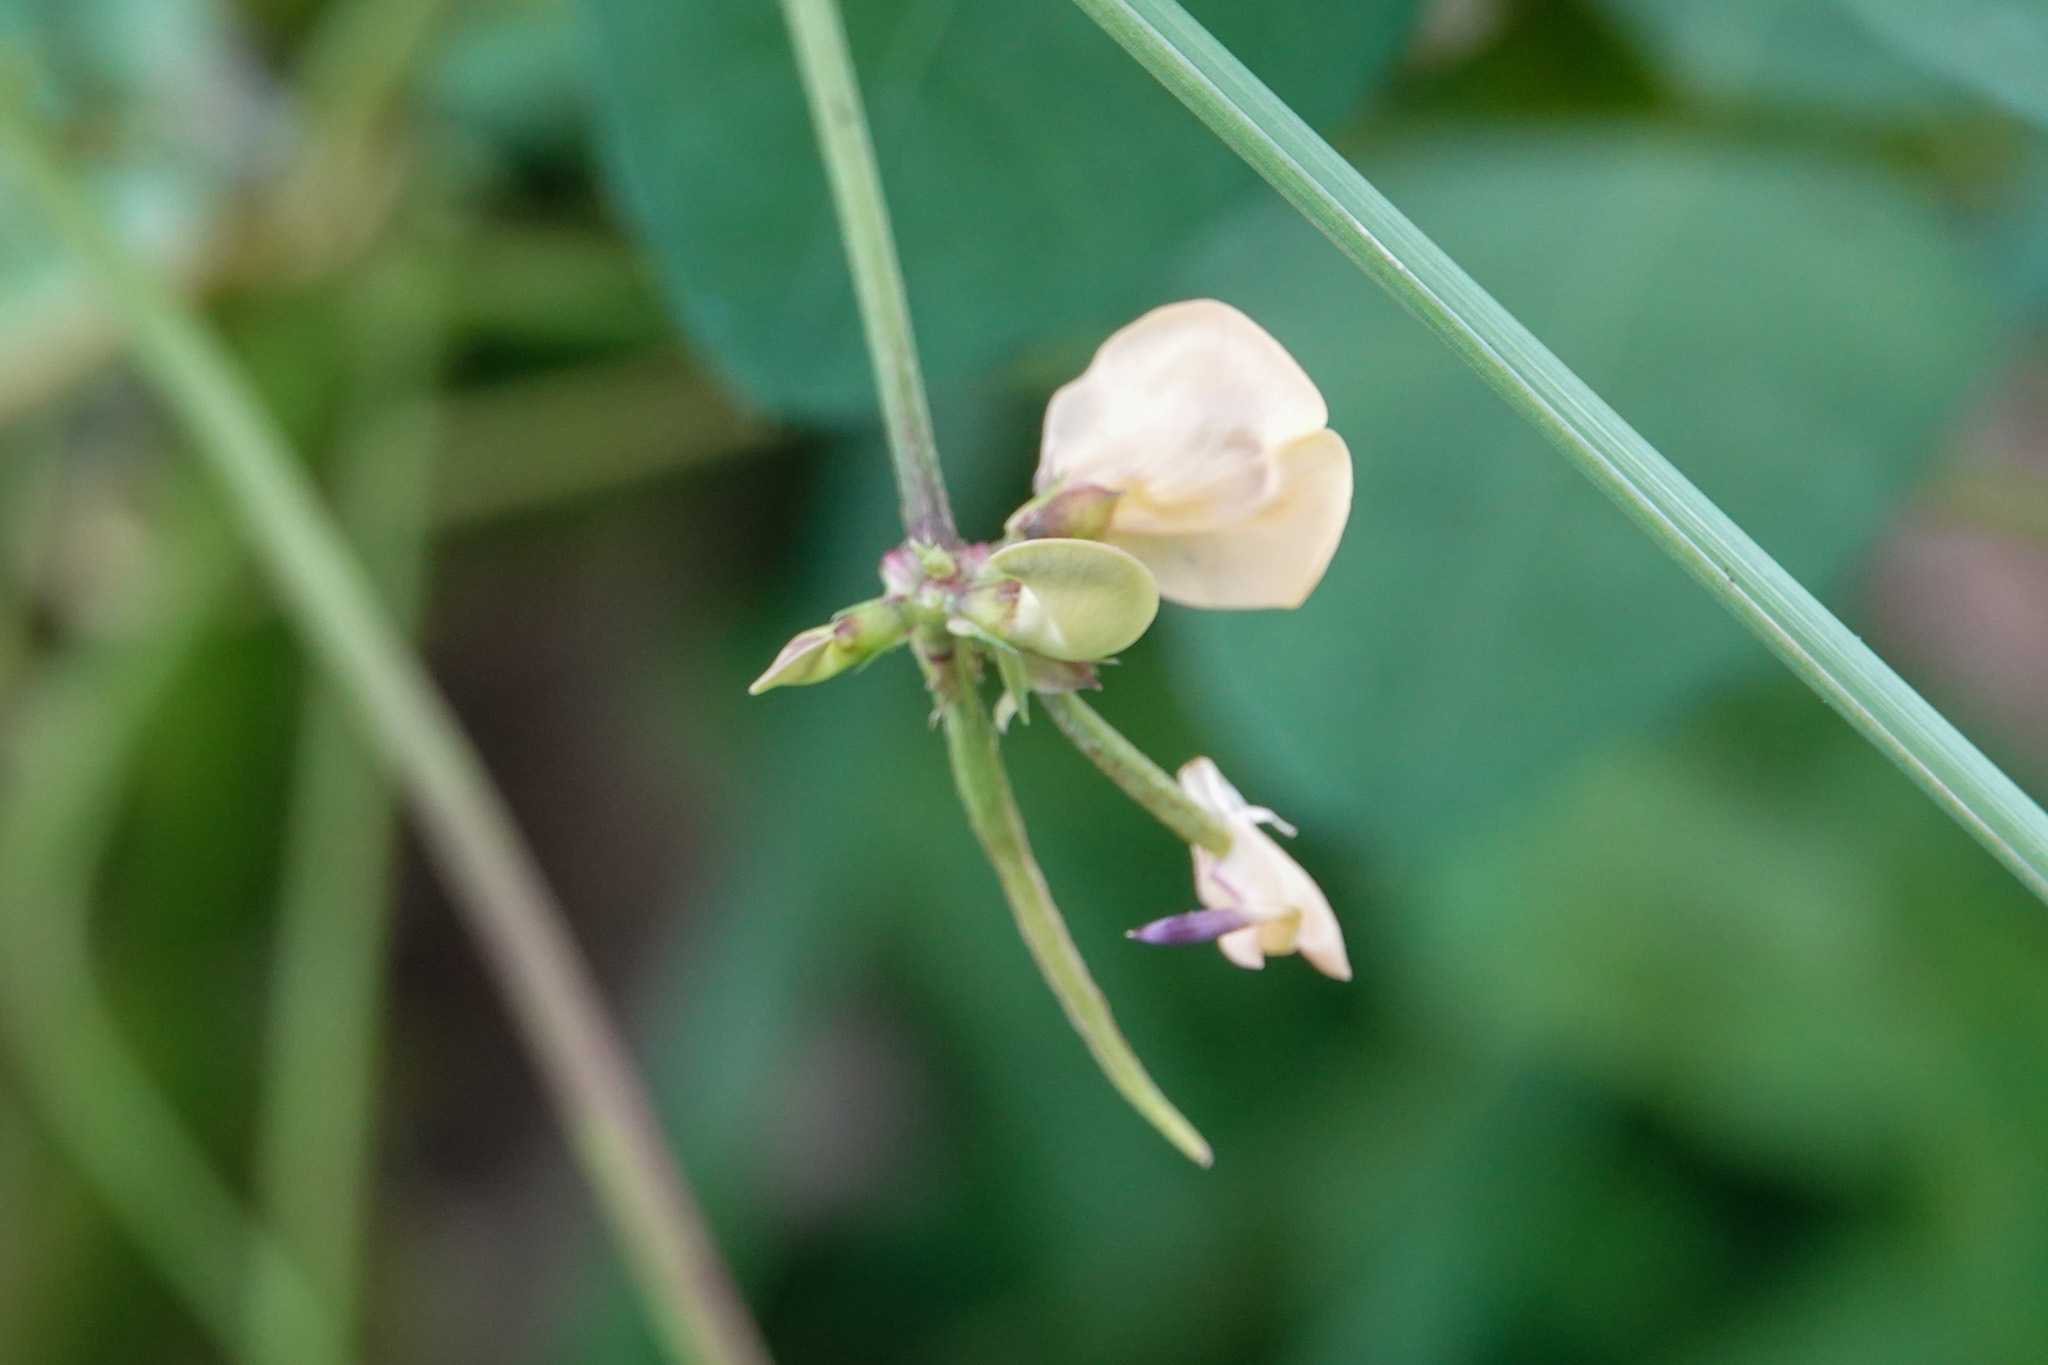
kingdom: Plantae
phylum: Tracheophyta
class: Magnoliopsida
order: Fabales
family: Fabaceae
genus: Strophostyles
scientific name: Strophostyles helvola
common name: Trailing wild bean
